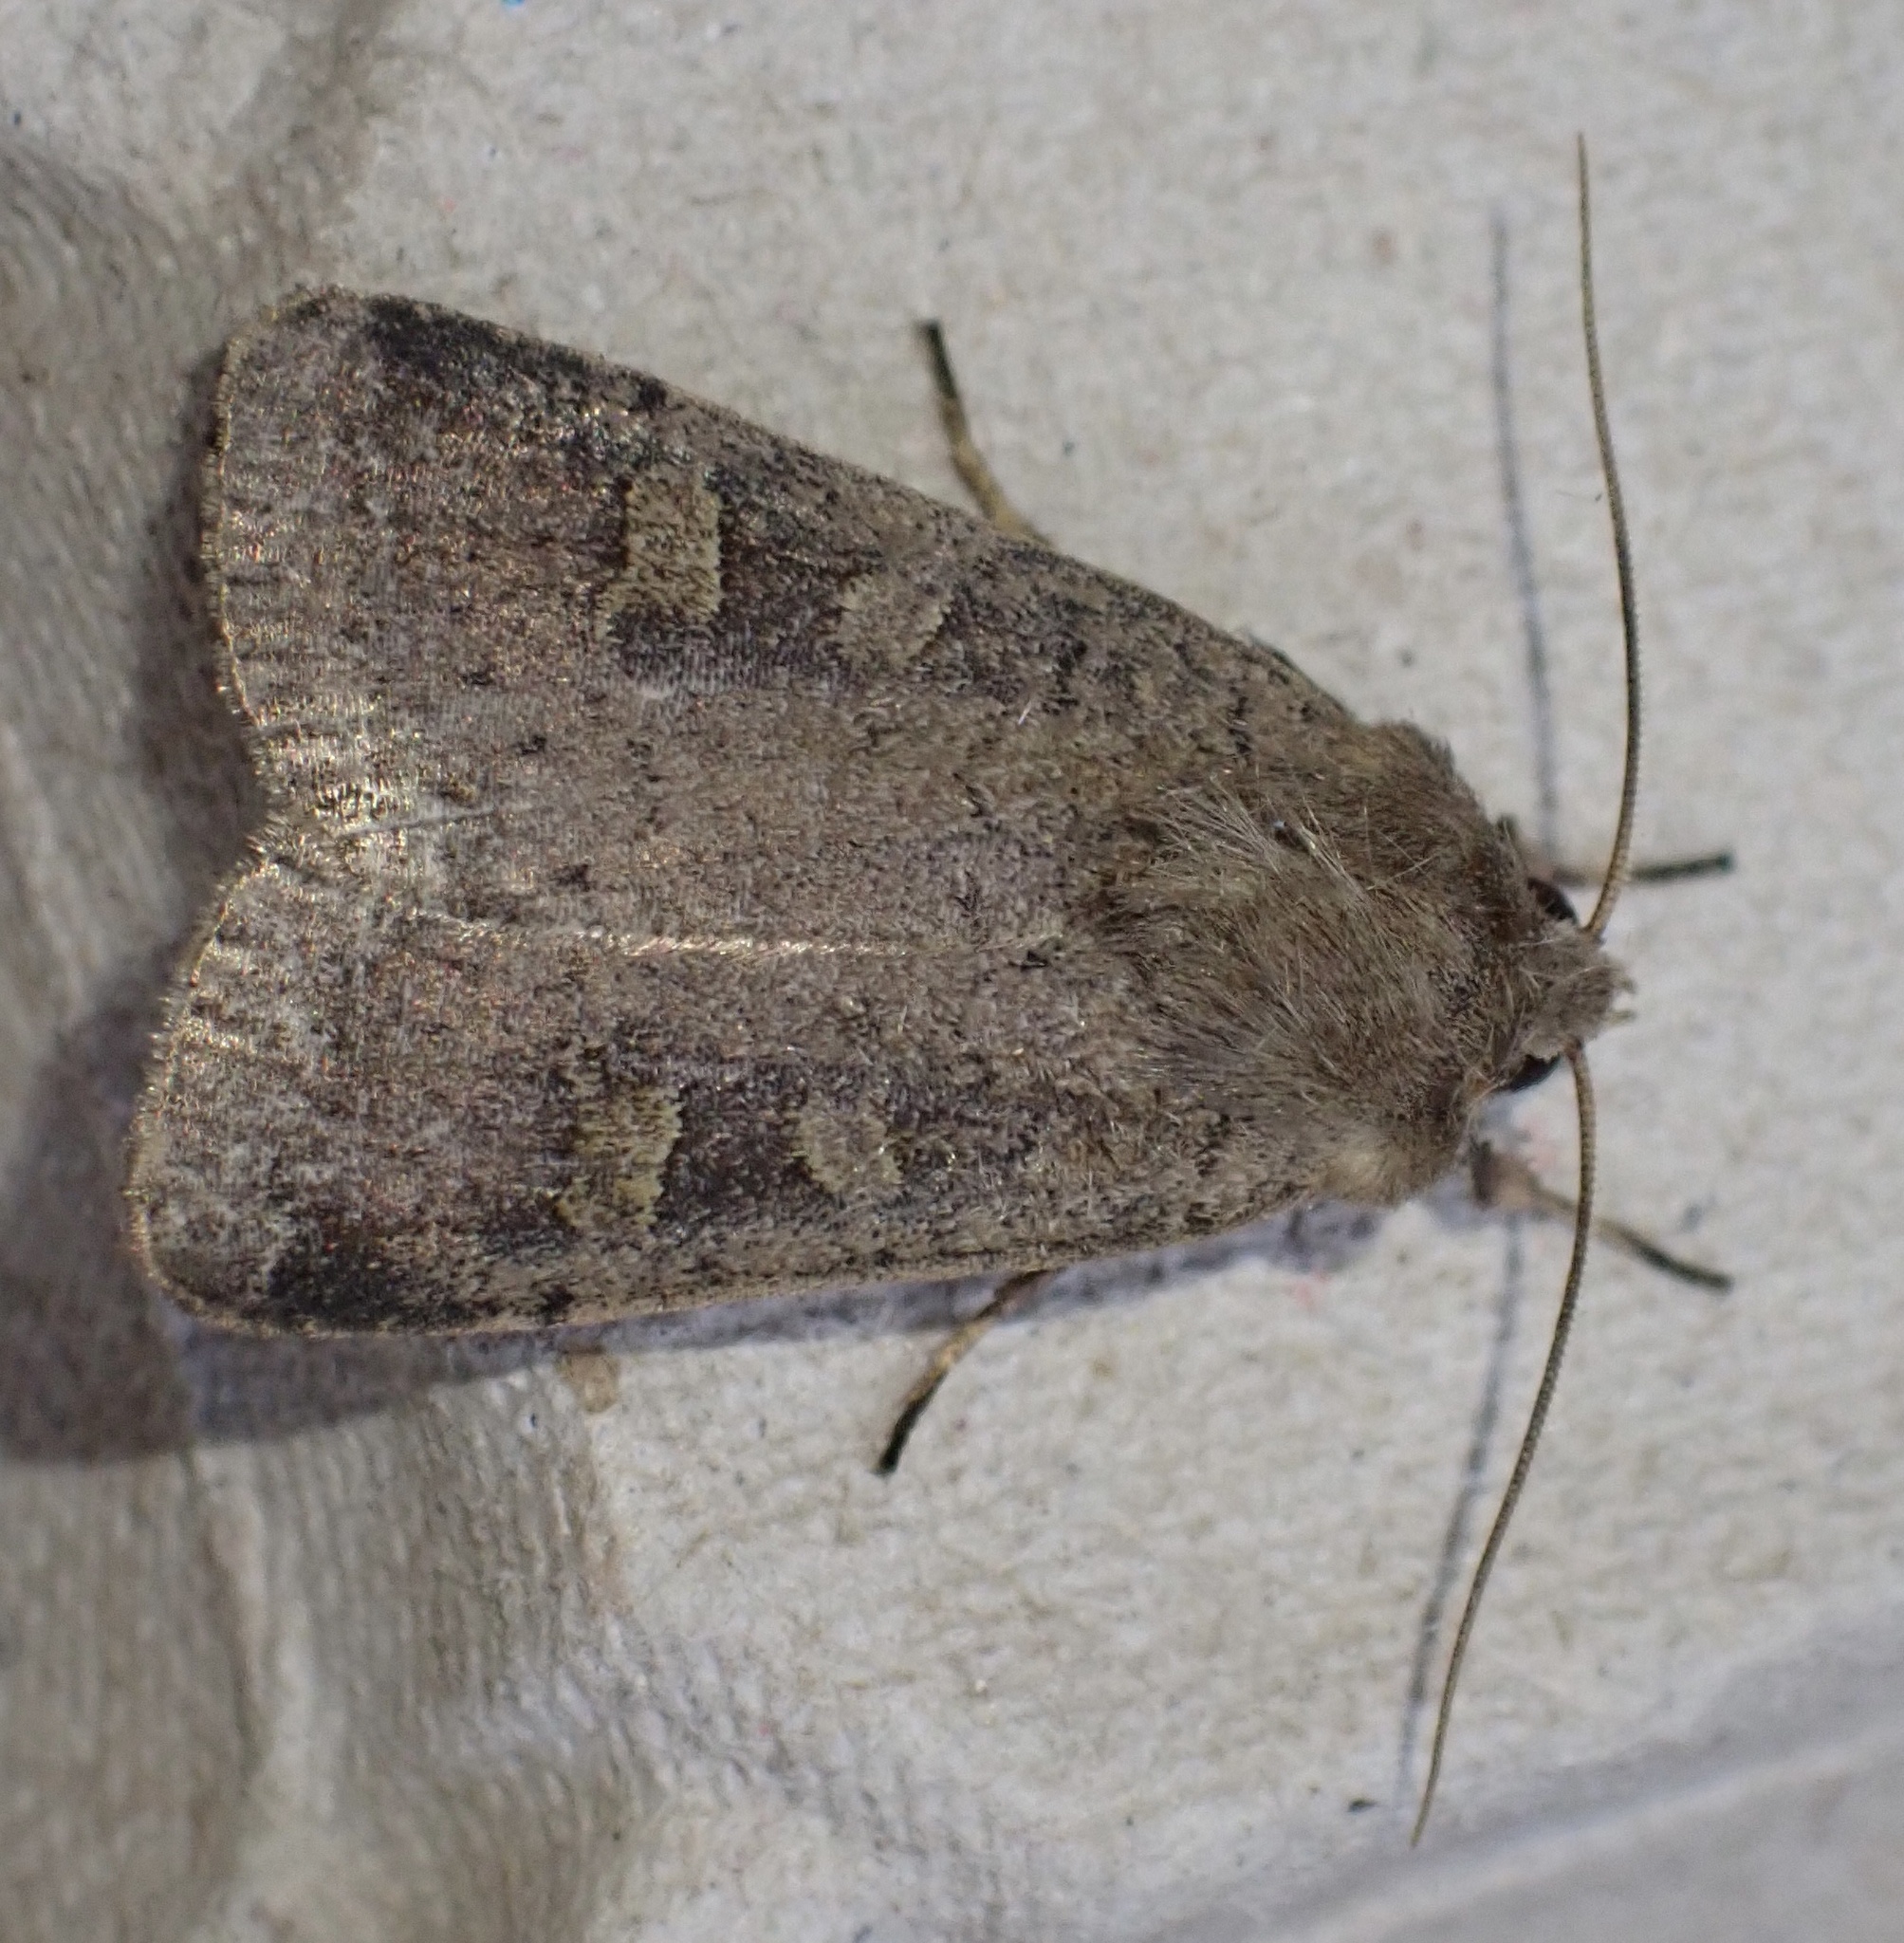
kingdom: Animalia
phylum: Arthropoda
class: Insecta
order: Lepidoptera
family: Noctuidae
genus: Xestia
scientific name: Xestia xanthographa
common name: Square-spot rustic
